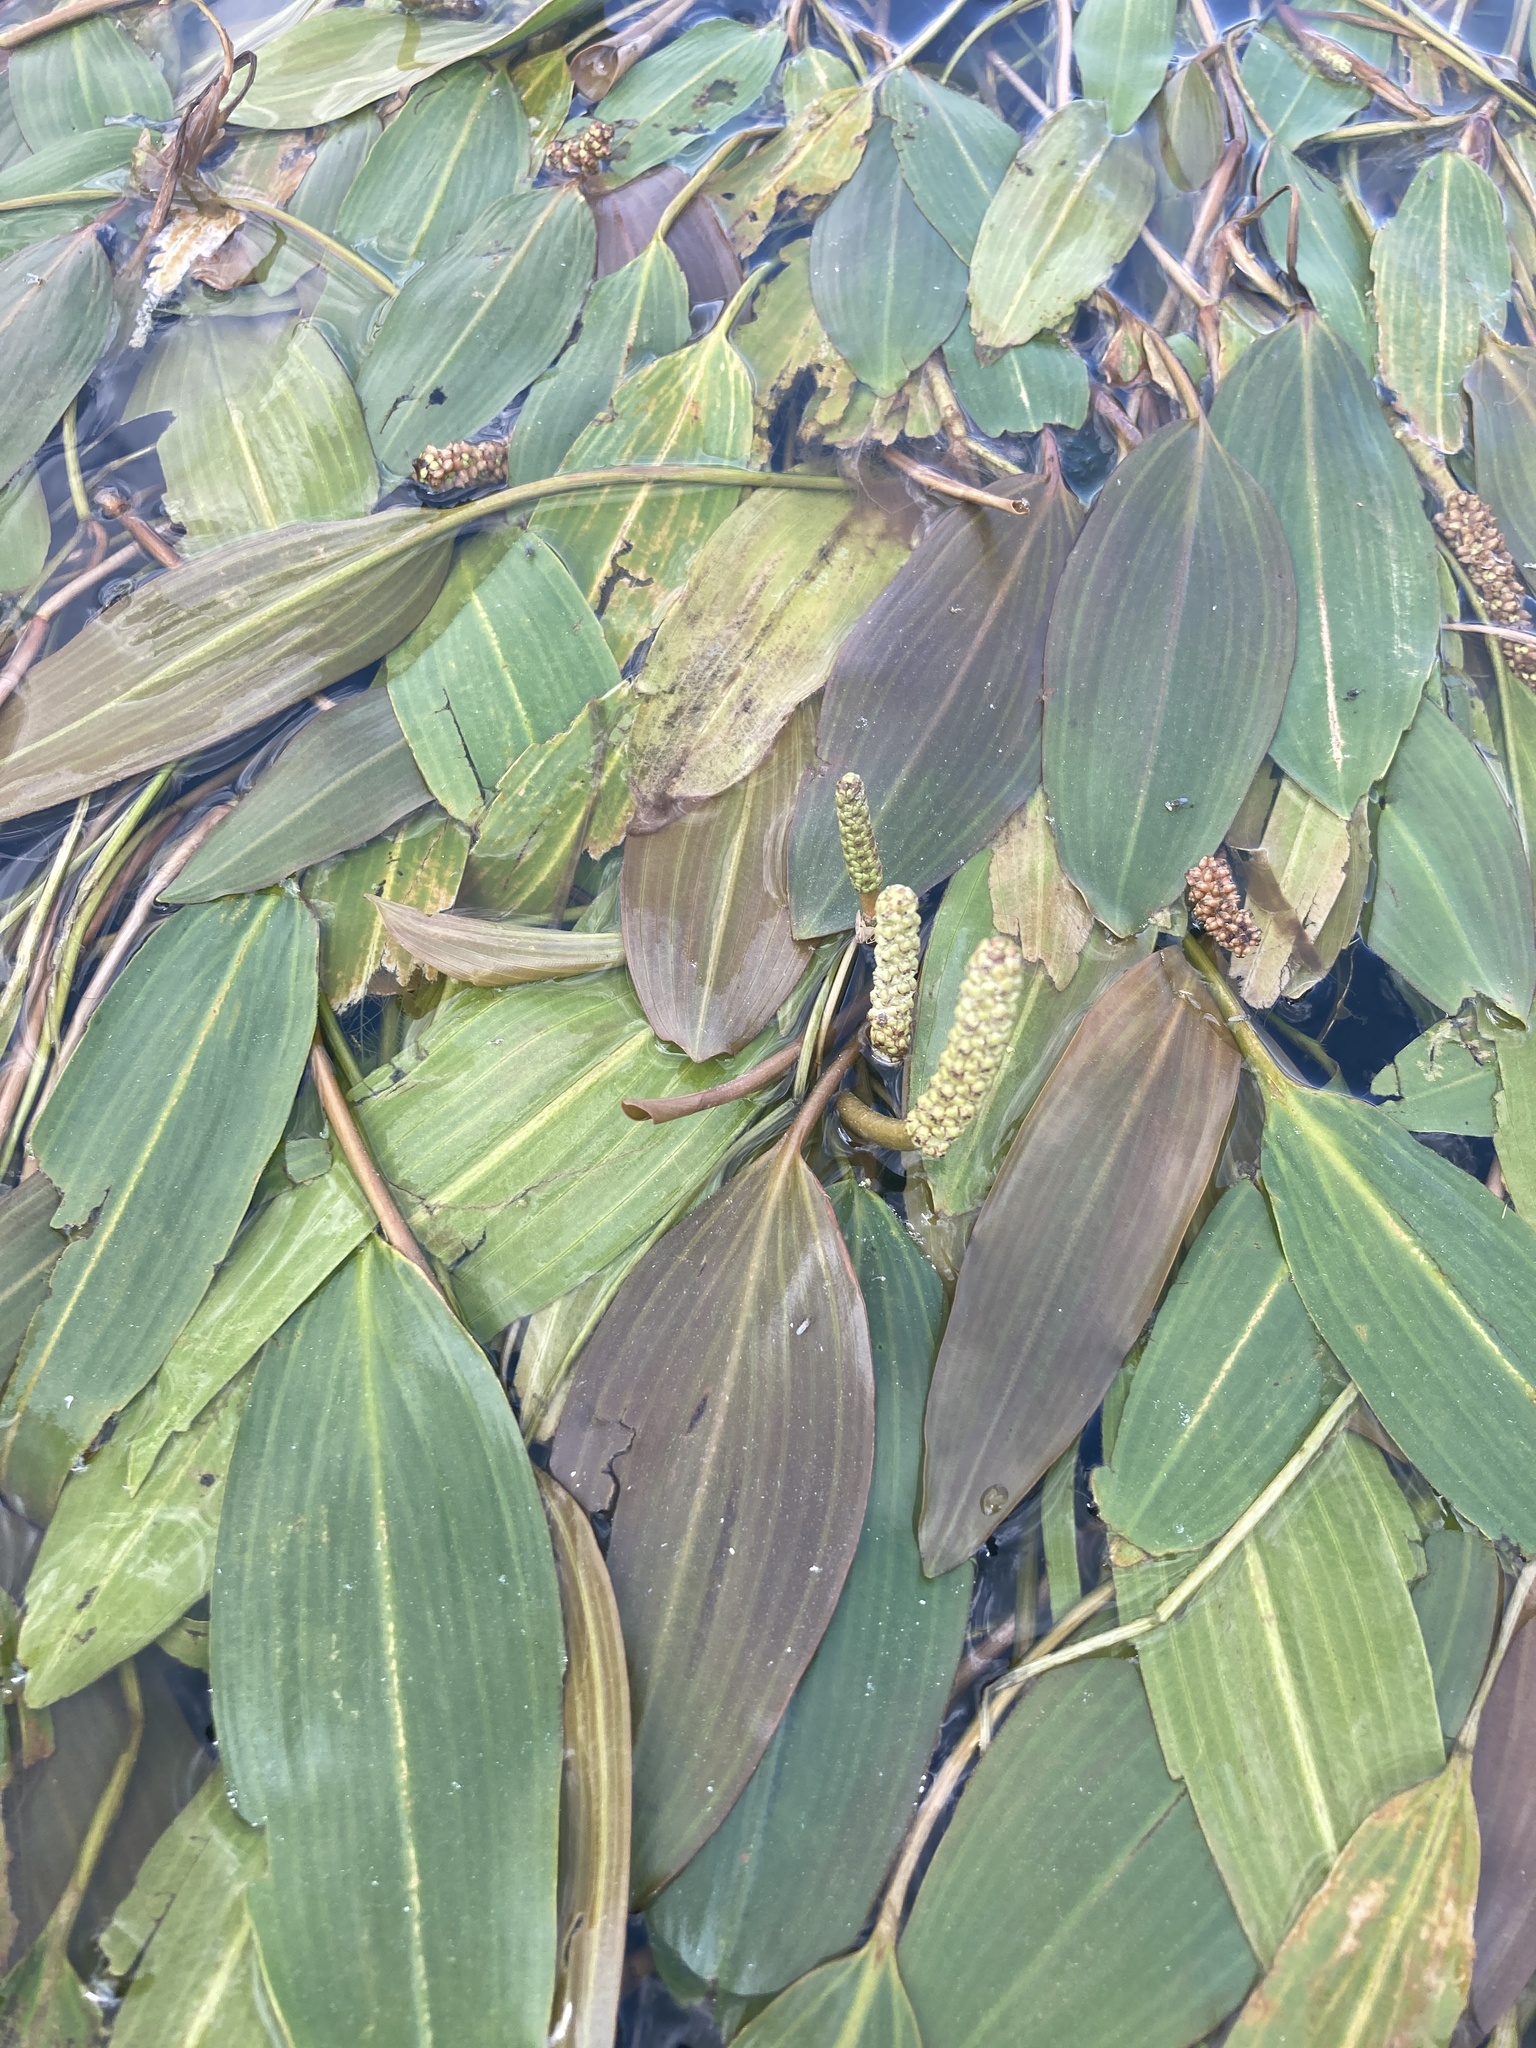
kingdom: Plantae
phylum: Tracheophyta
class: Liliopsida
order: Alismatales
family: Potamogetonaceae
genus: Potamogeton
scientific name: Potamogeton nodosus
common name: Loddon pondweed
